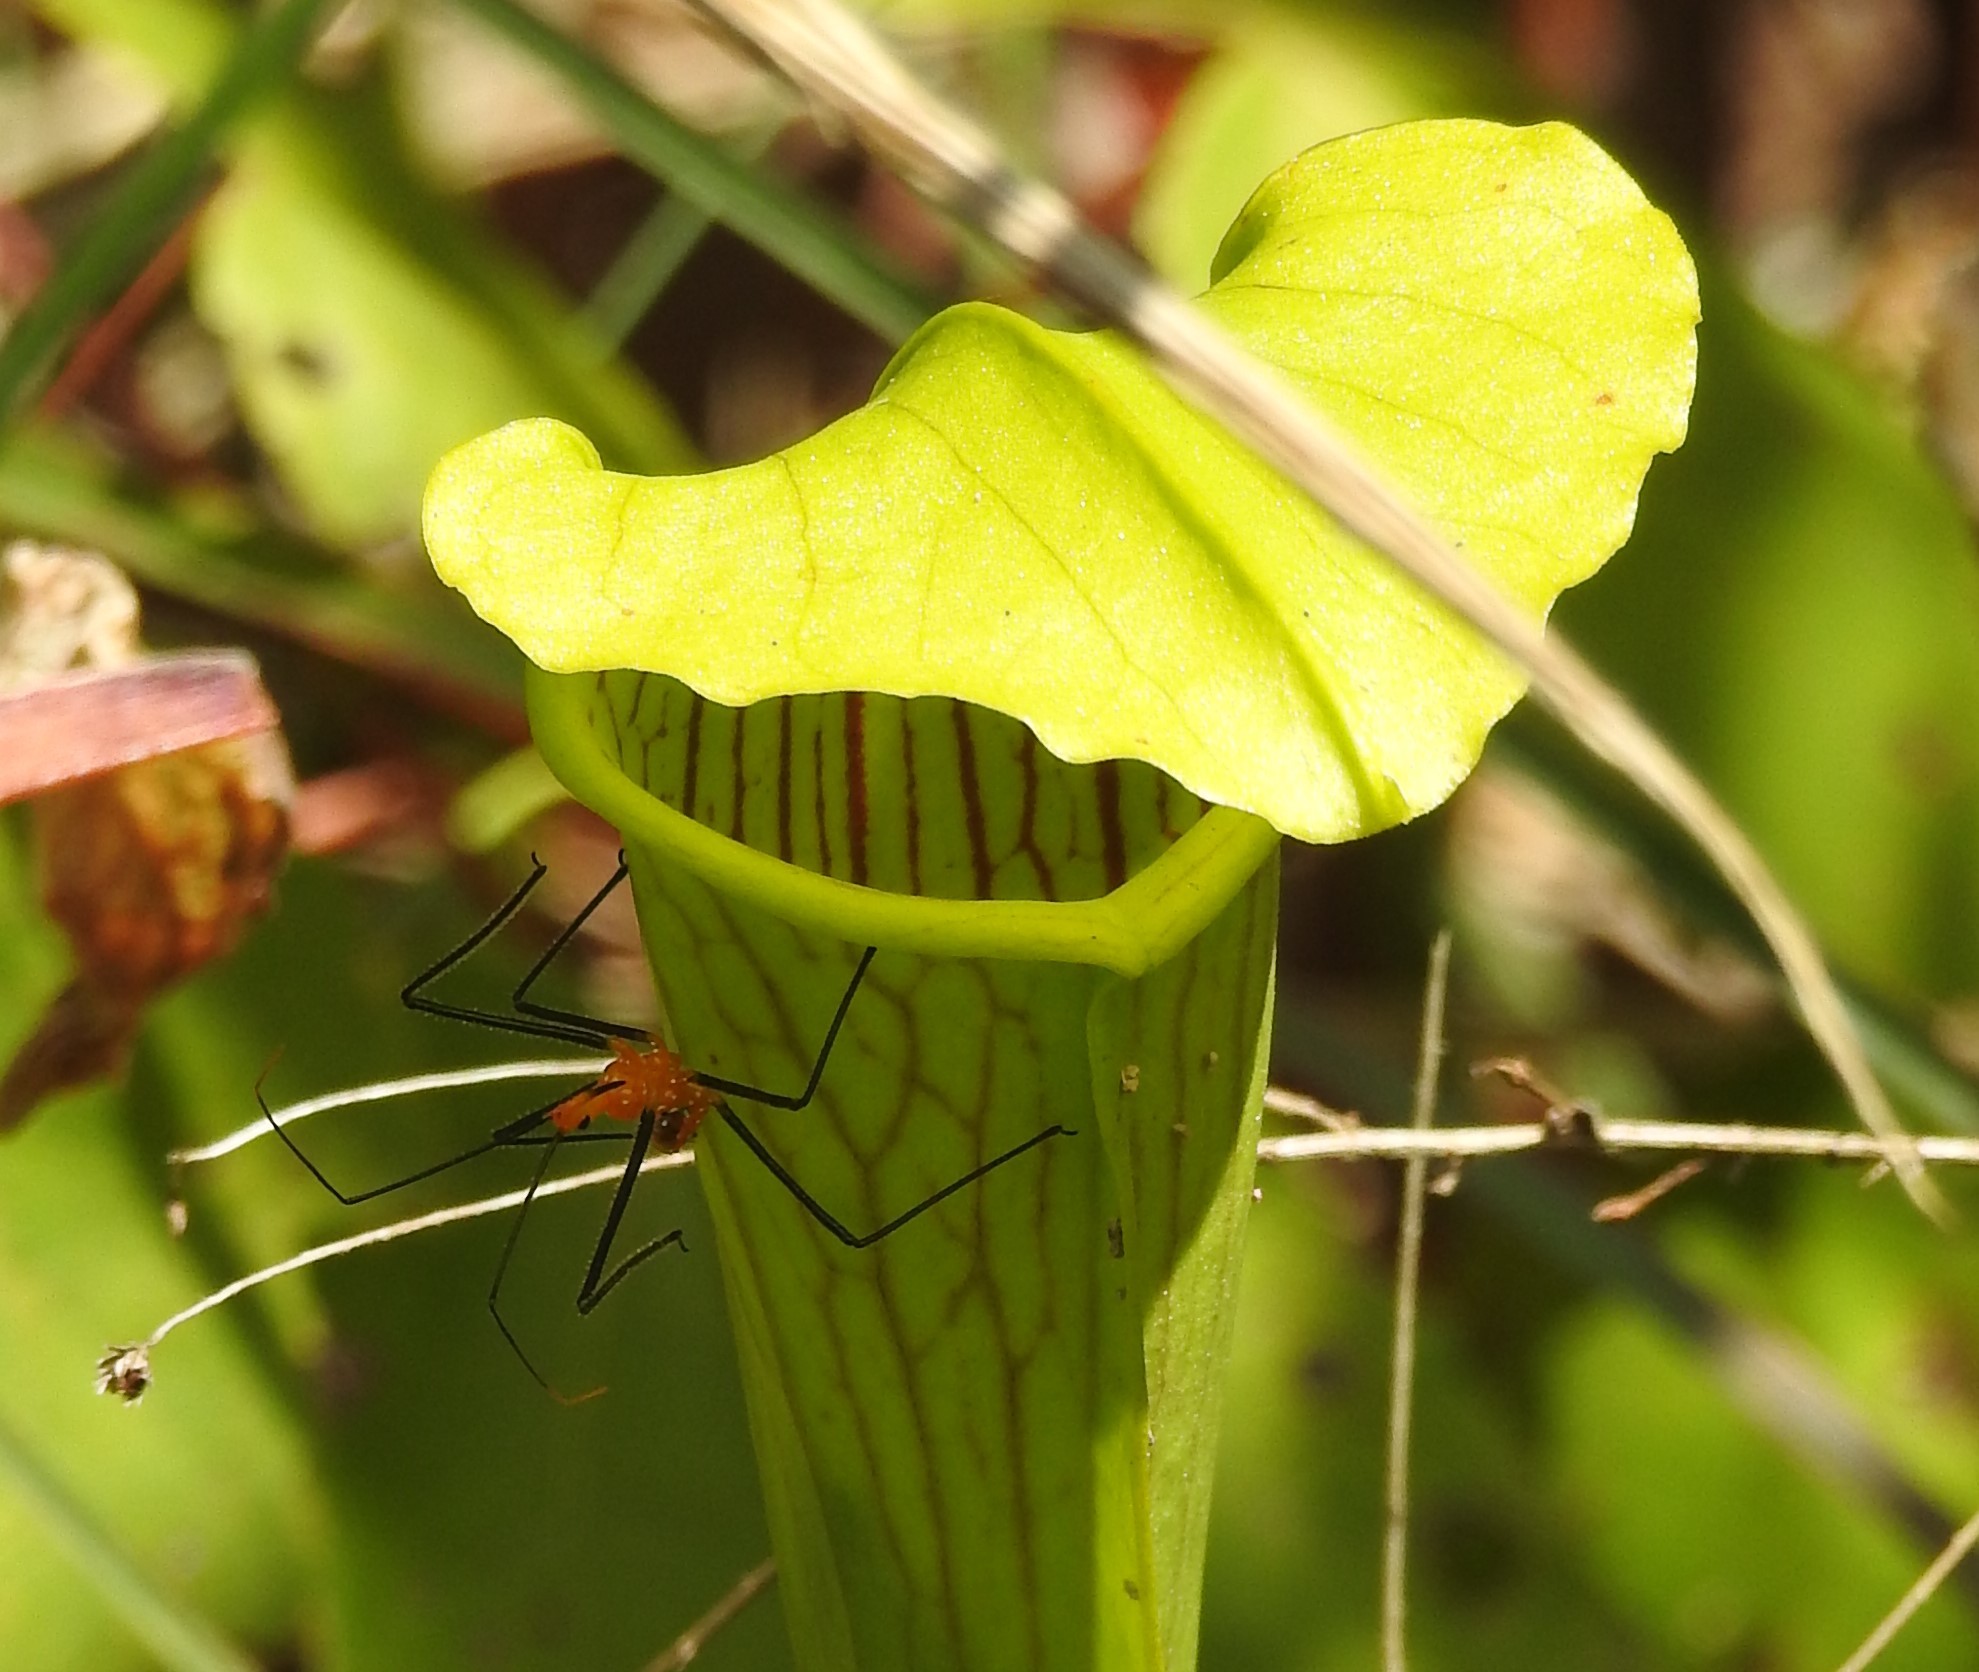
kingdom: Animalia
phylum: Arthropoda
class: Insecta
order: Hemiptera
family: Reduviidae
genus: Zelus
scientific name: Zelus longipes
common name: Milkweed assassin bug
